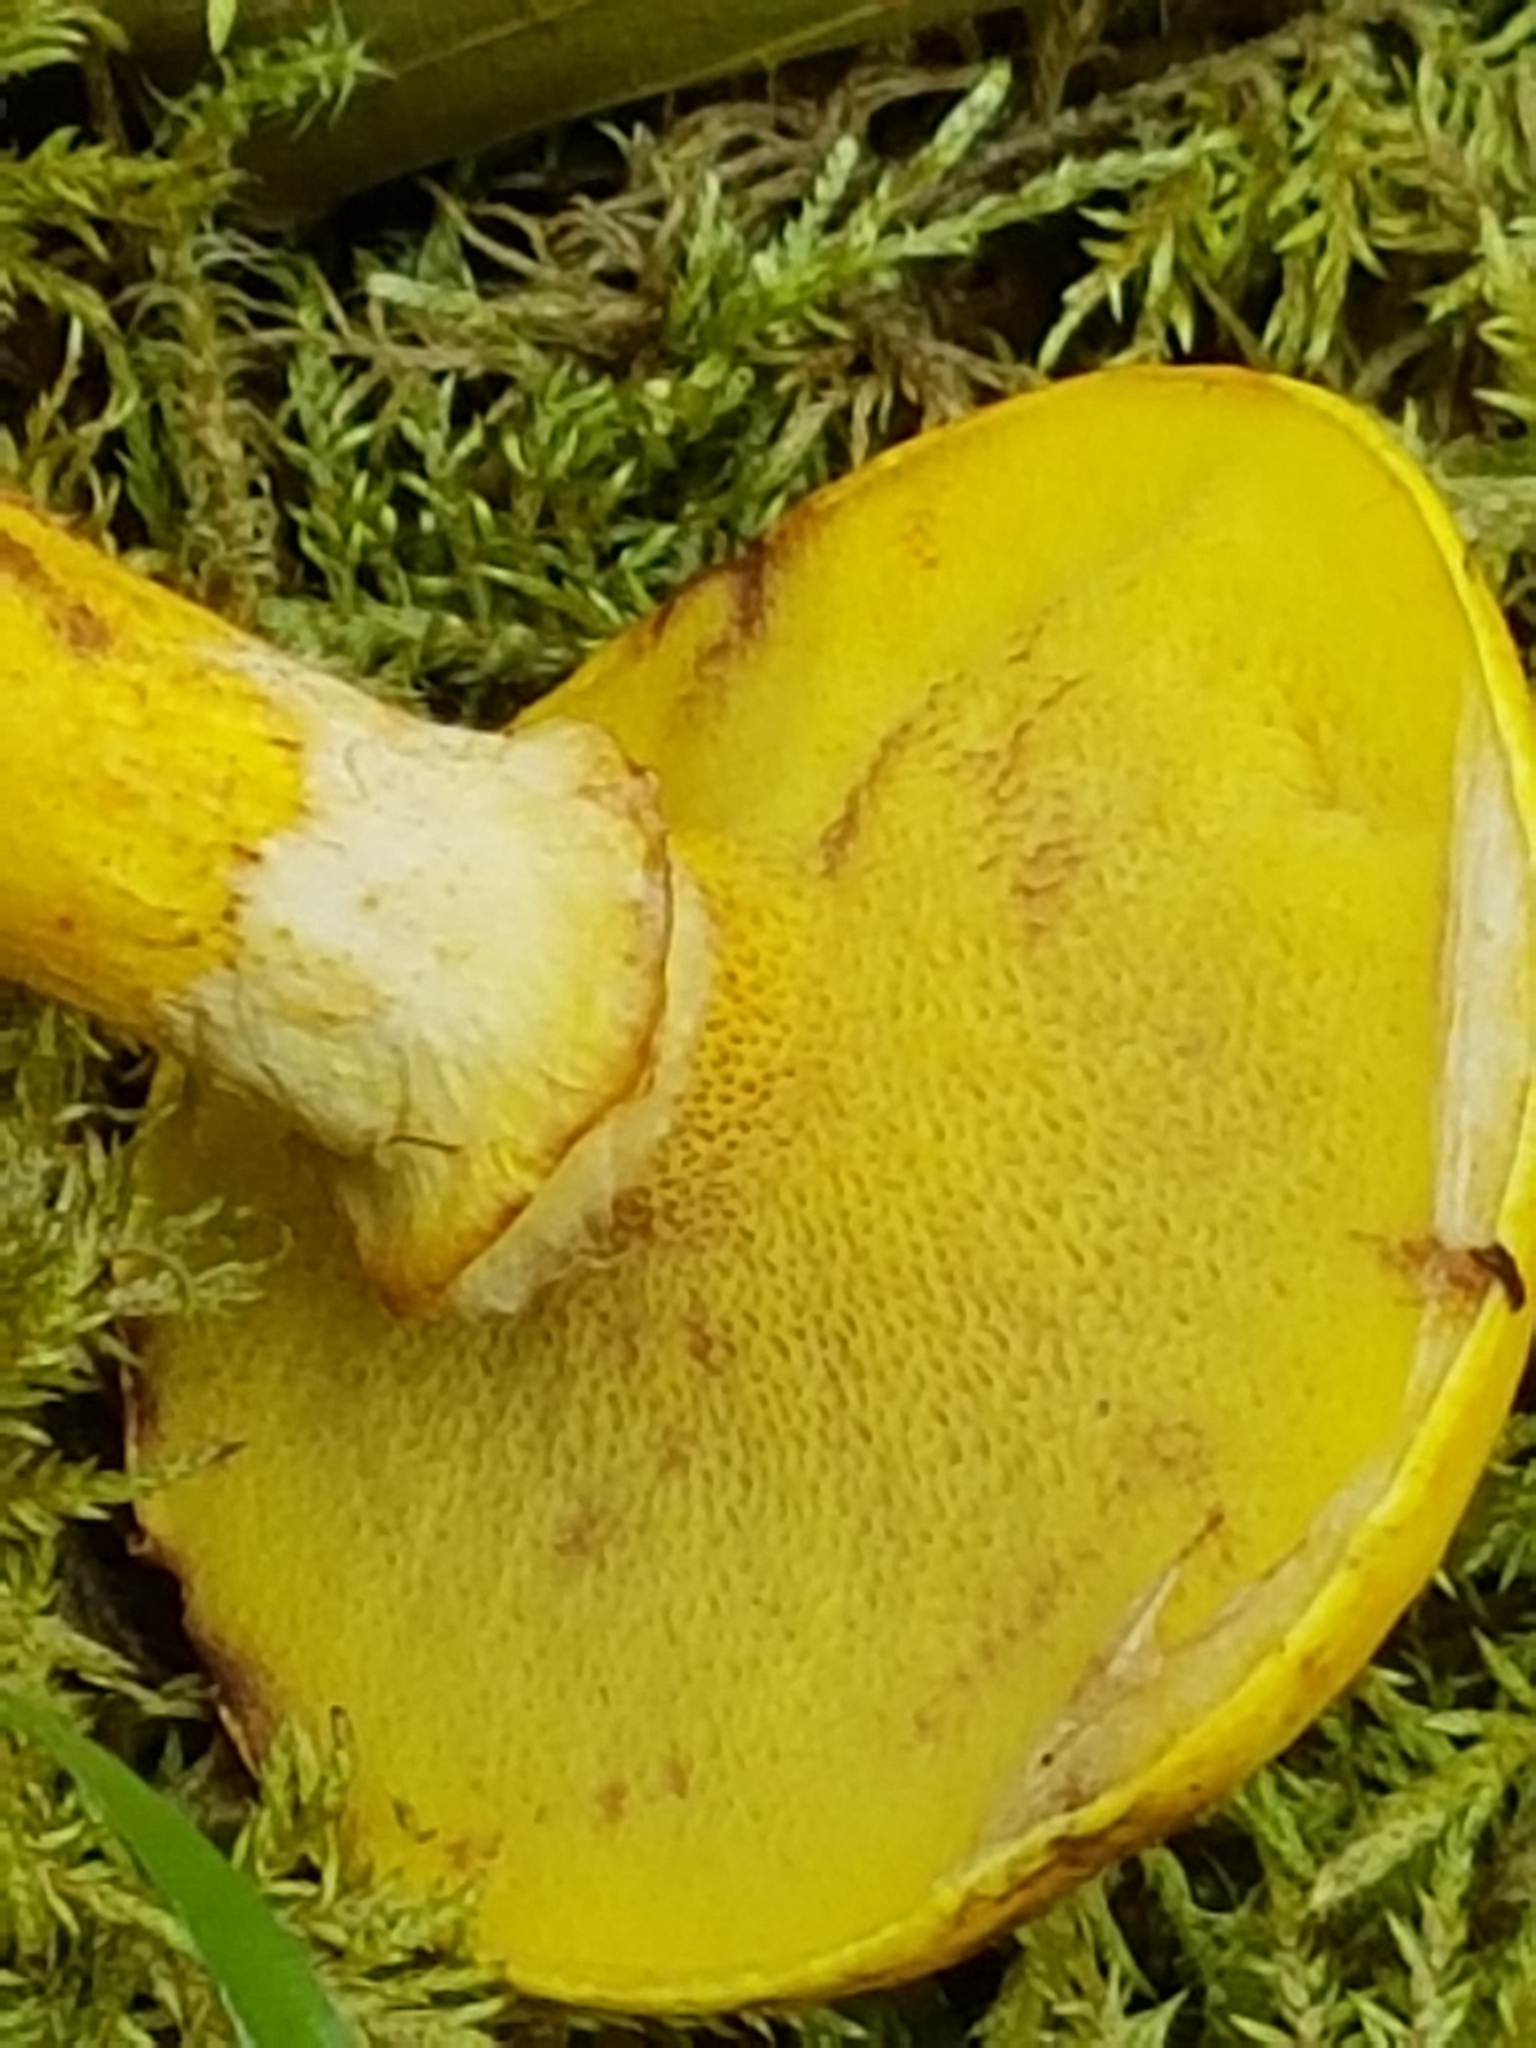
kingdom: Fungi
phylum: Basidiomycota
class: Agaricomycetes
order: Boletales
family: Suillaceae
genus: Suillus
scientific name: Suillus grevillei
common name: Larch bolete
